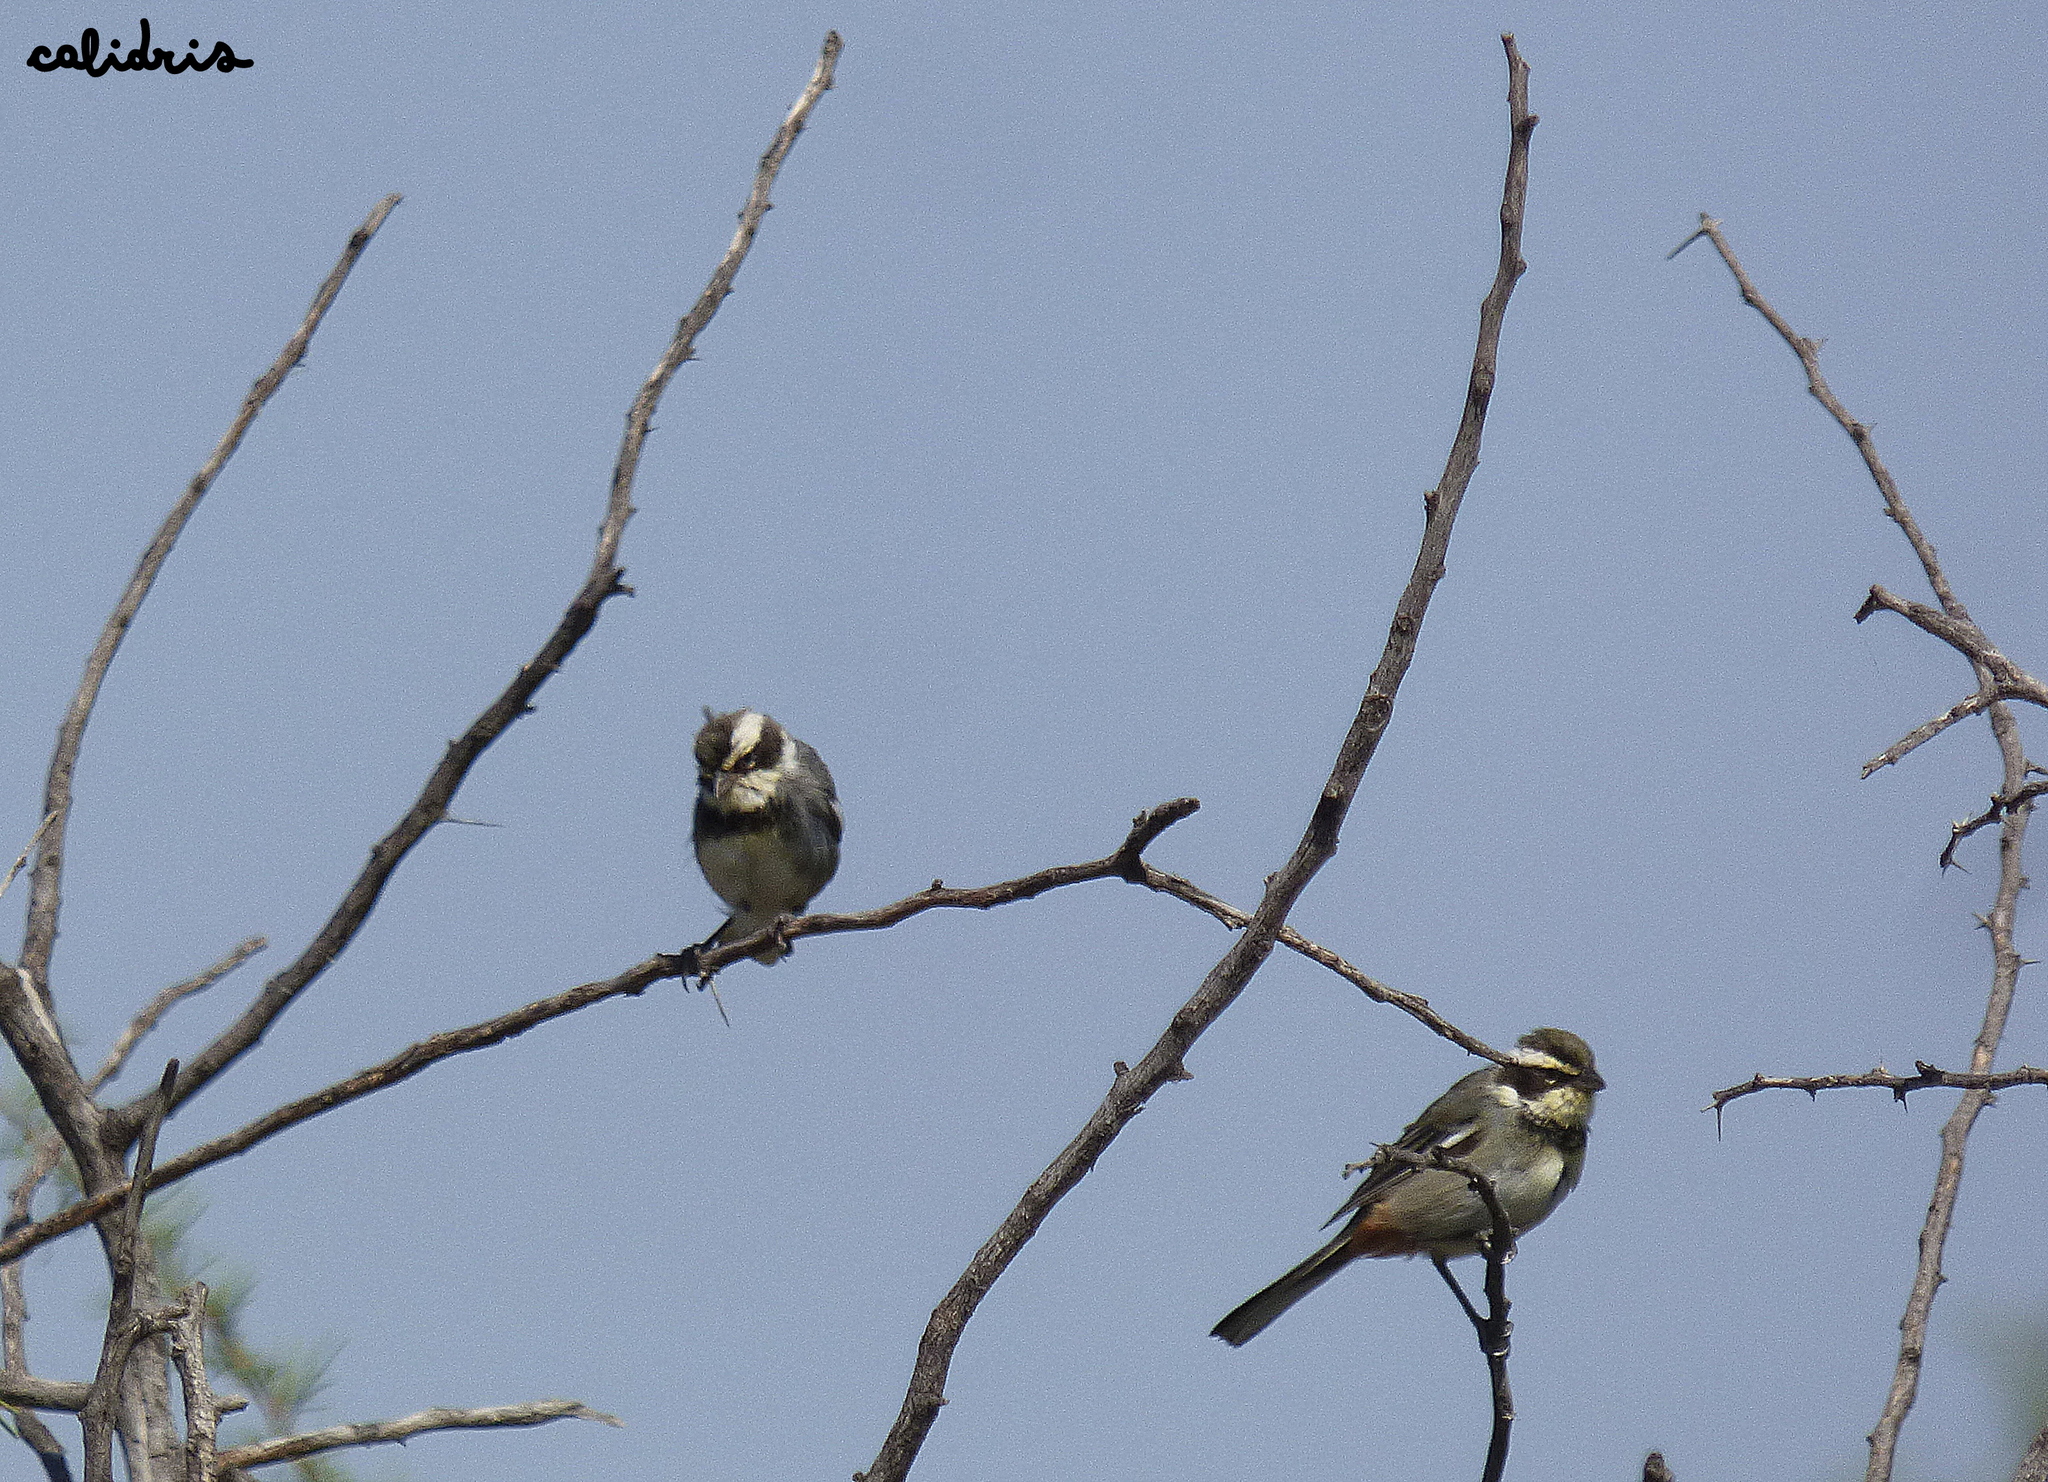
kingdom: Animalia
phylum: Chordata
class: Aves
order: Passeriformes
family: Thraupidae
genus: Microspingus
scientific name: Microspingus torquatus
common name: Ringed warbling-finch
